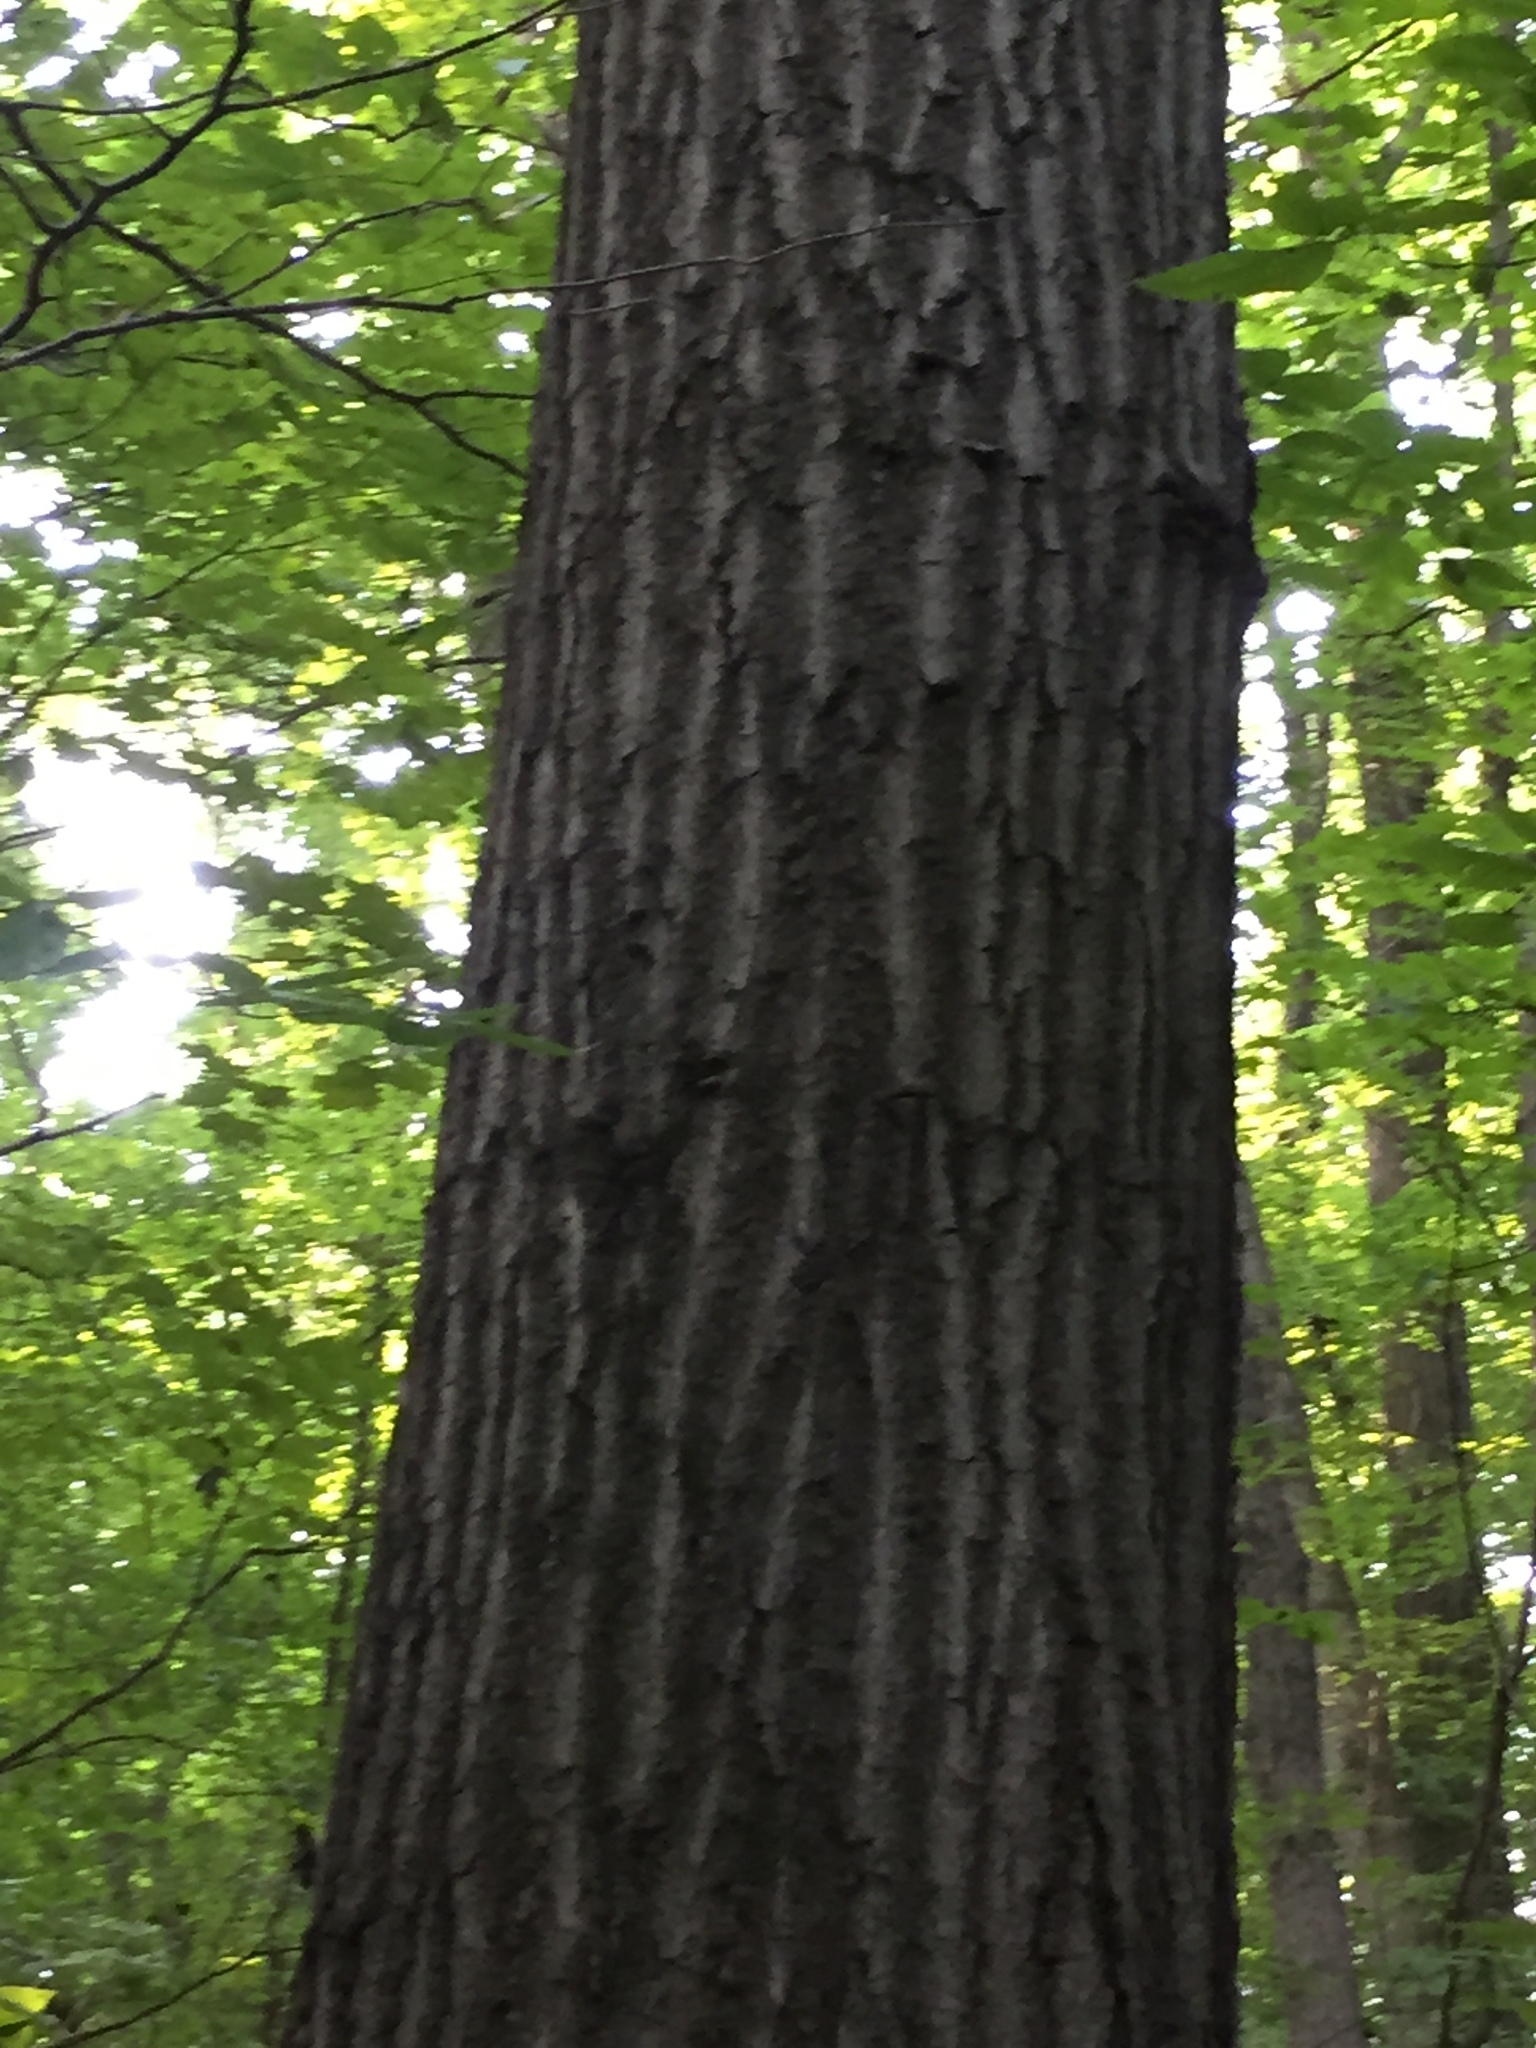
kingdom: Plantae
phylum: Tracheophyta
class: Magnoliopsida
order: Fagales
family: Fagaceae
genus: Quercus
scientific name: Quercus rubra
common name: Red oak
